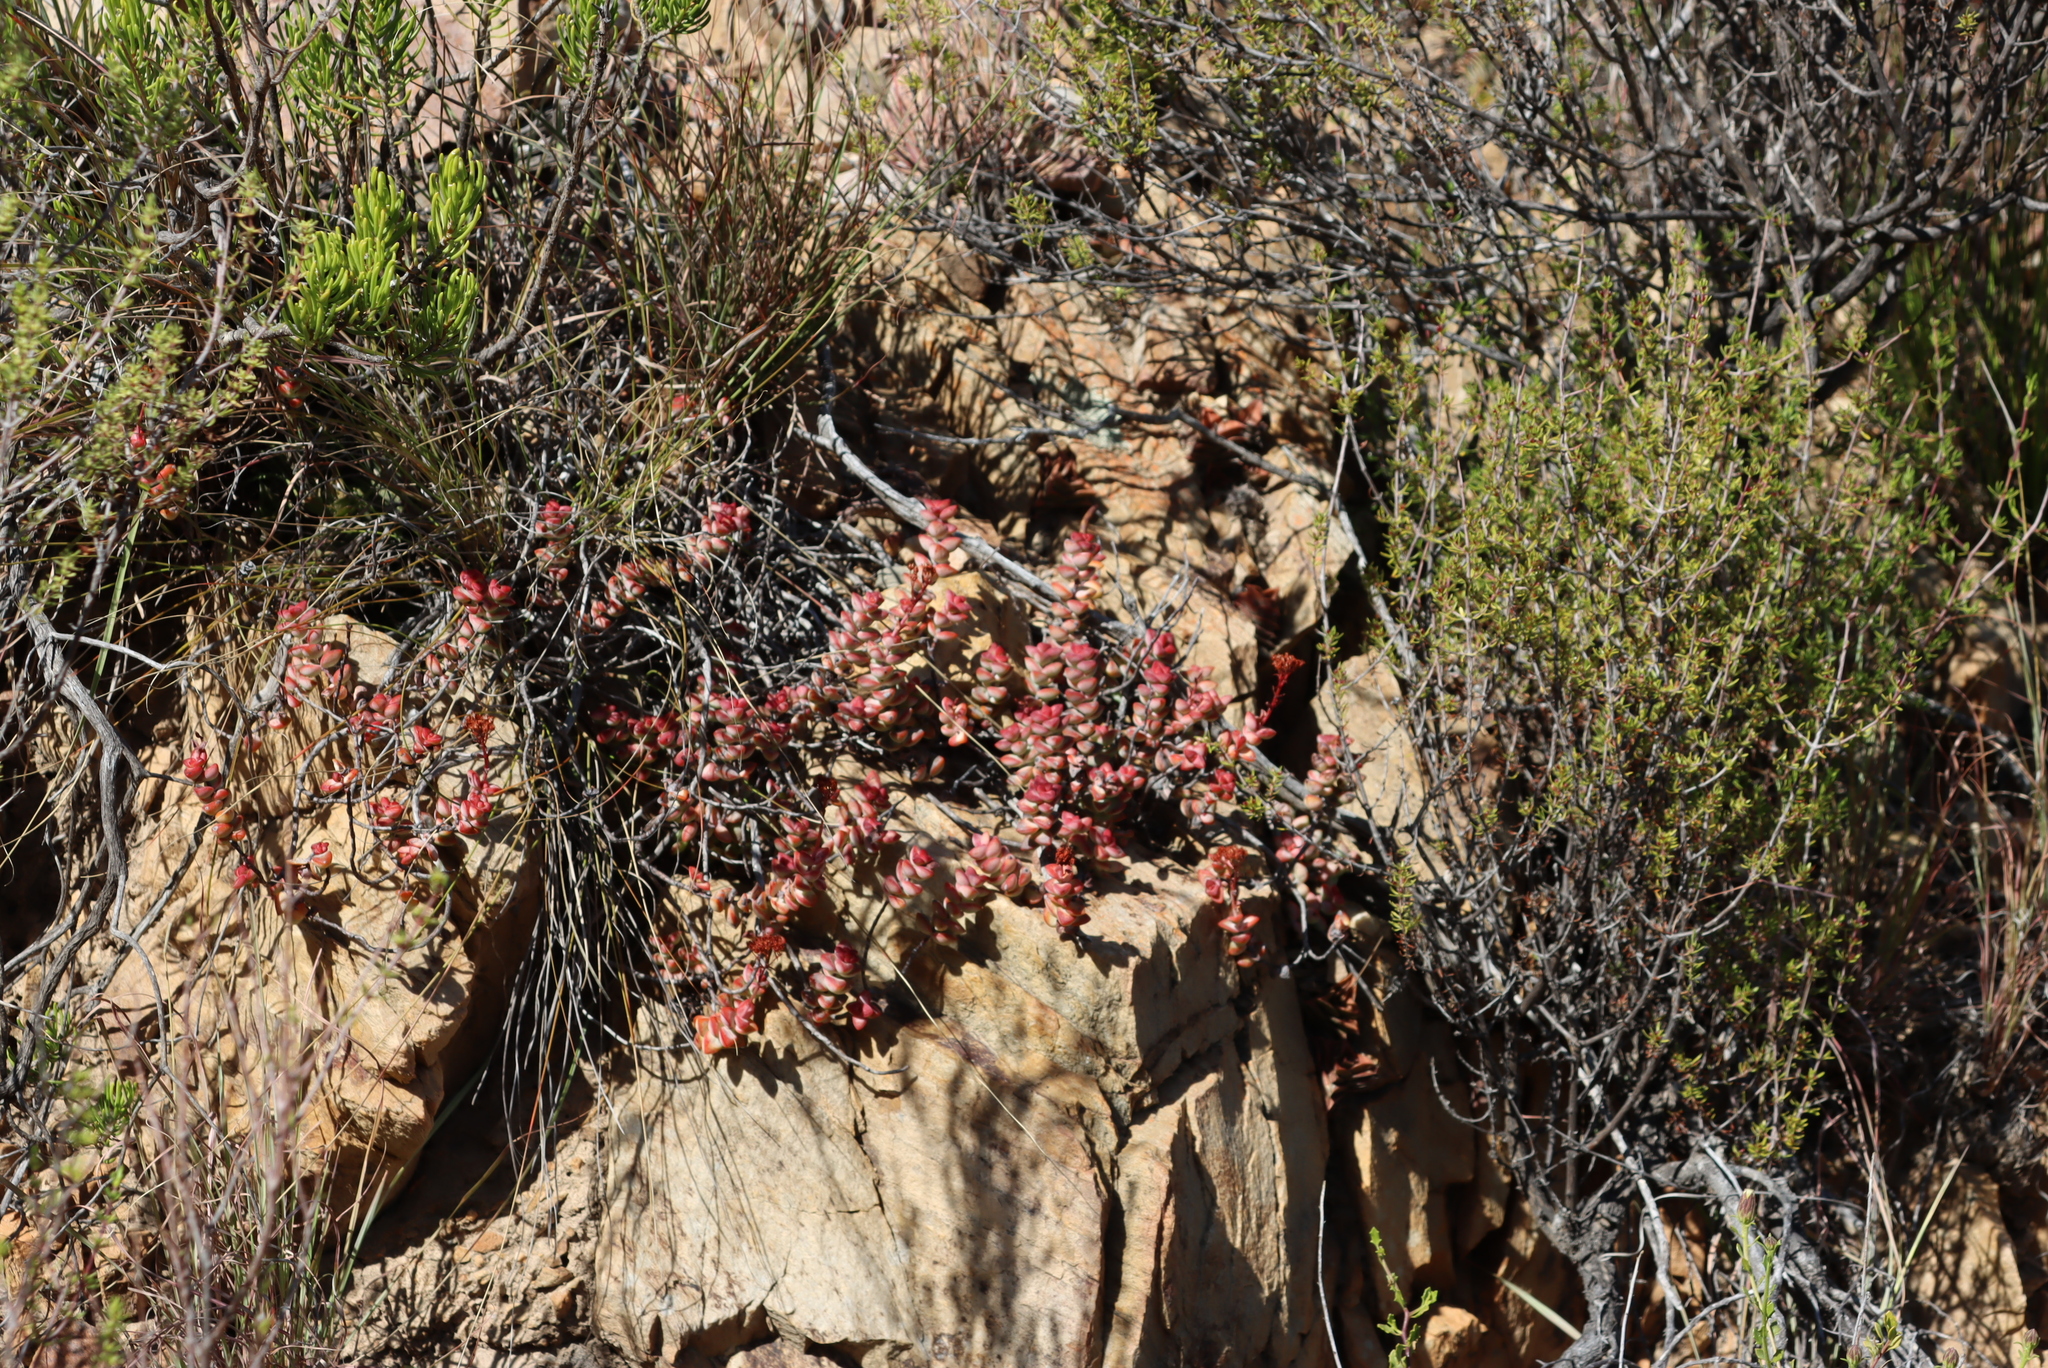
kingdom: Plantae
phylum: Tracheophyta
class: Magnoliopsida
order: Saxifragales
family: Crassulaceae
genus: Crassula
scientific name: Crassula rupestris
